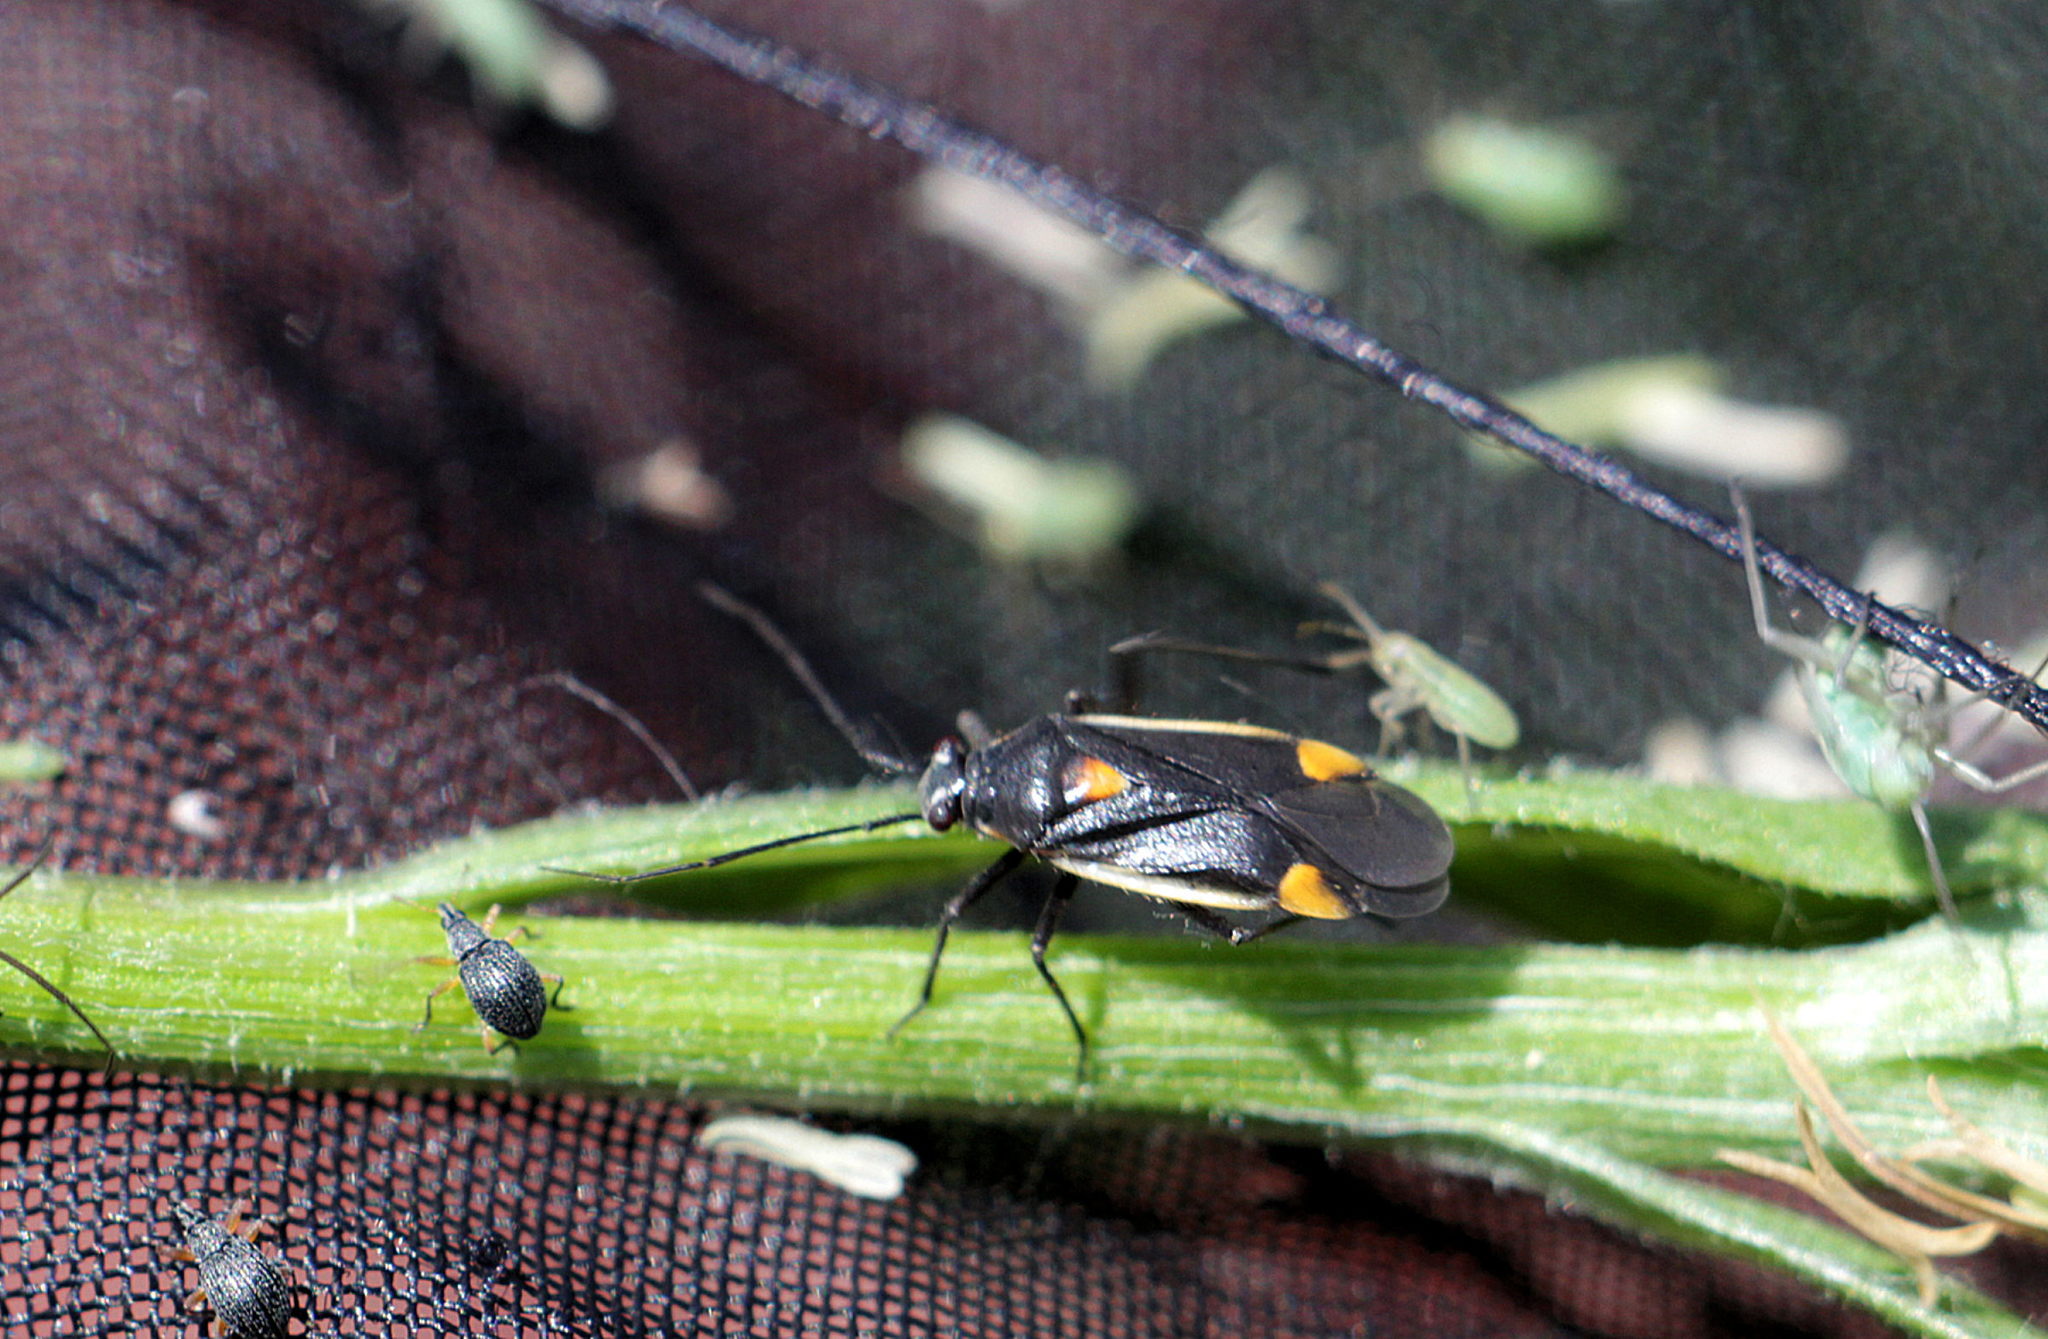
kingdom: Animalia
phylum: Arthropoda
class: Insecta
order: Hemiptera
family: Miridae
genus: Capsodes
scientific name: Capsodes gothicus
